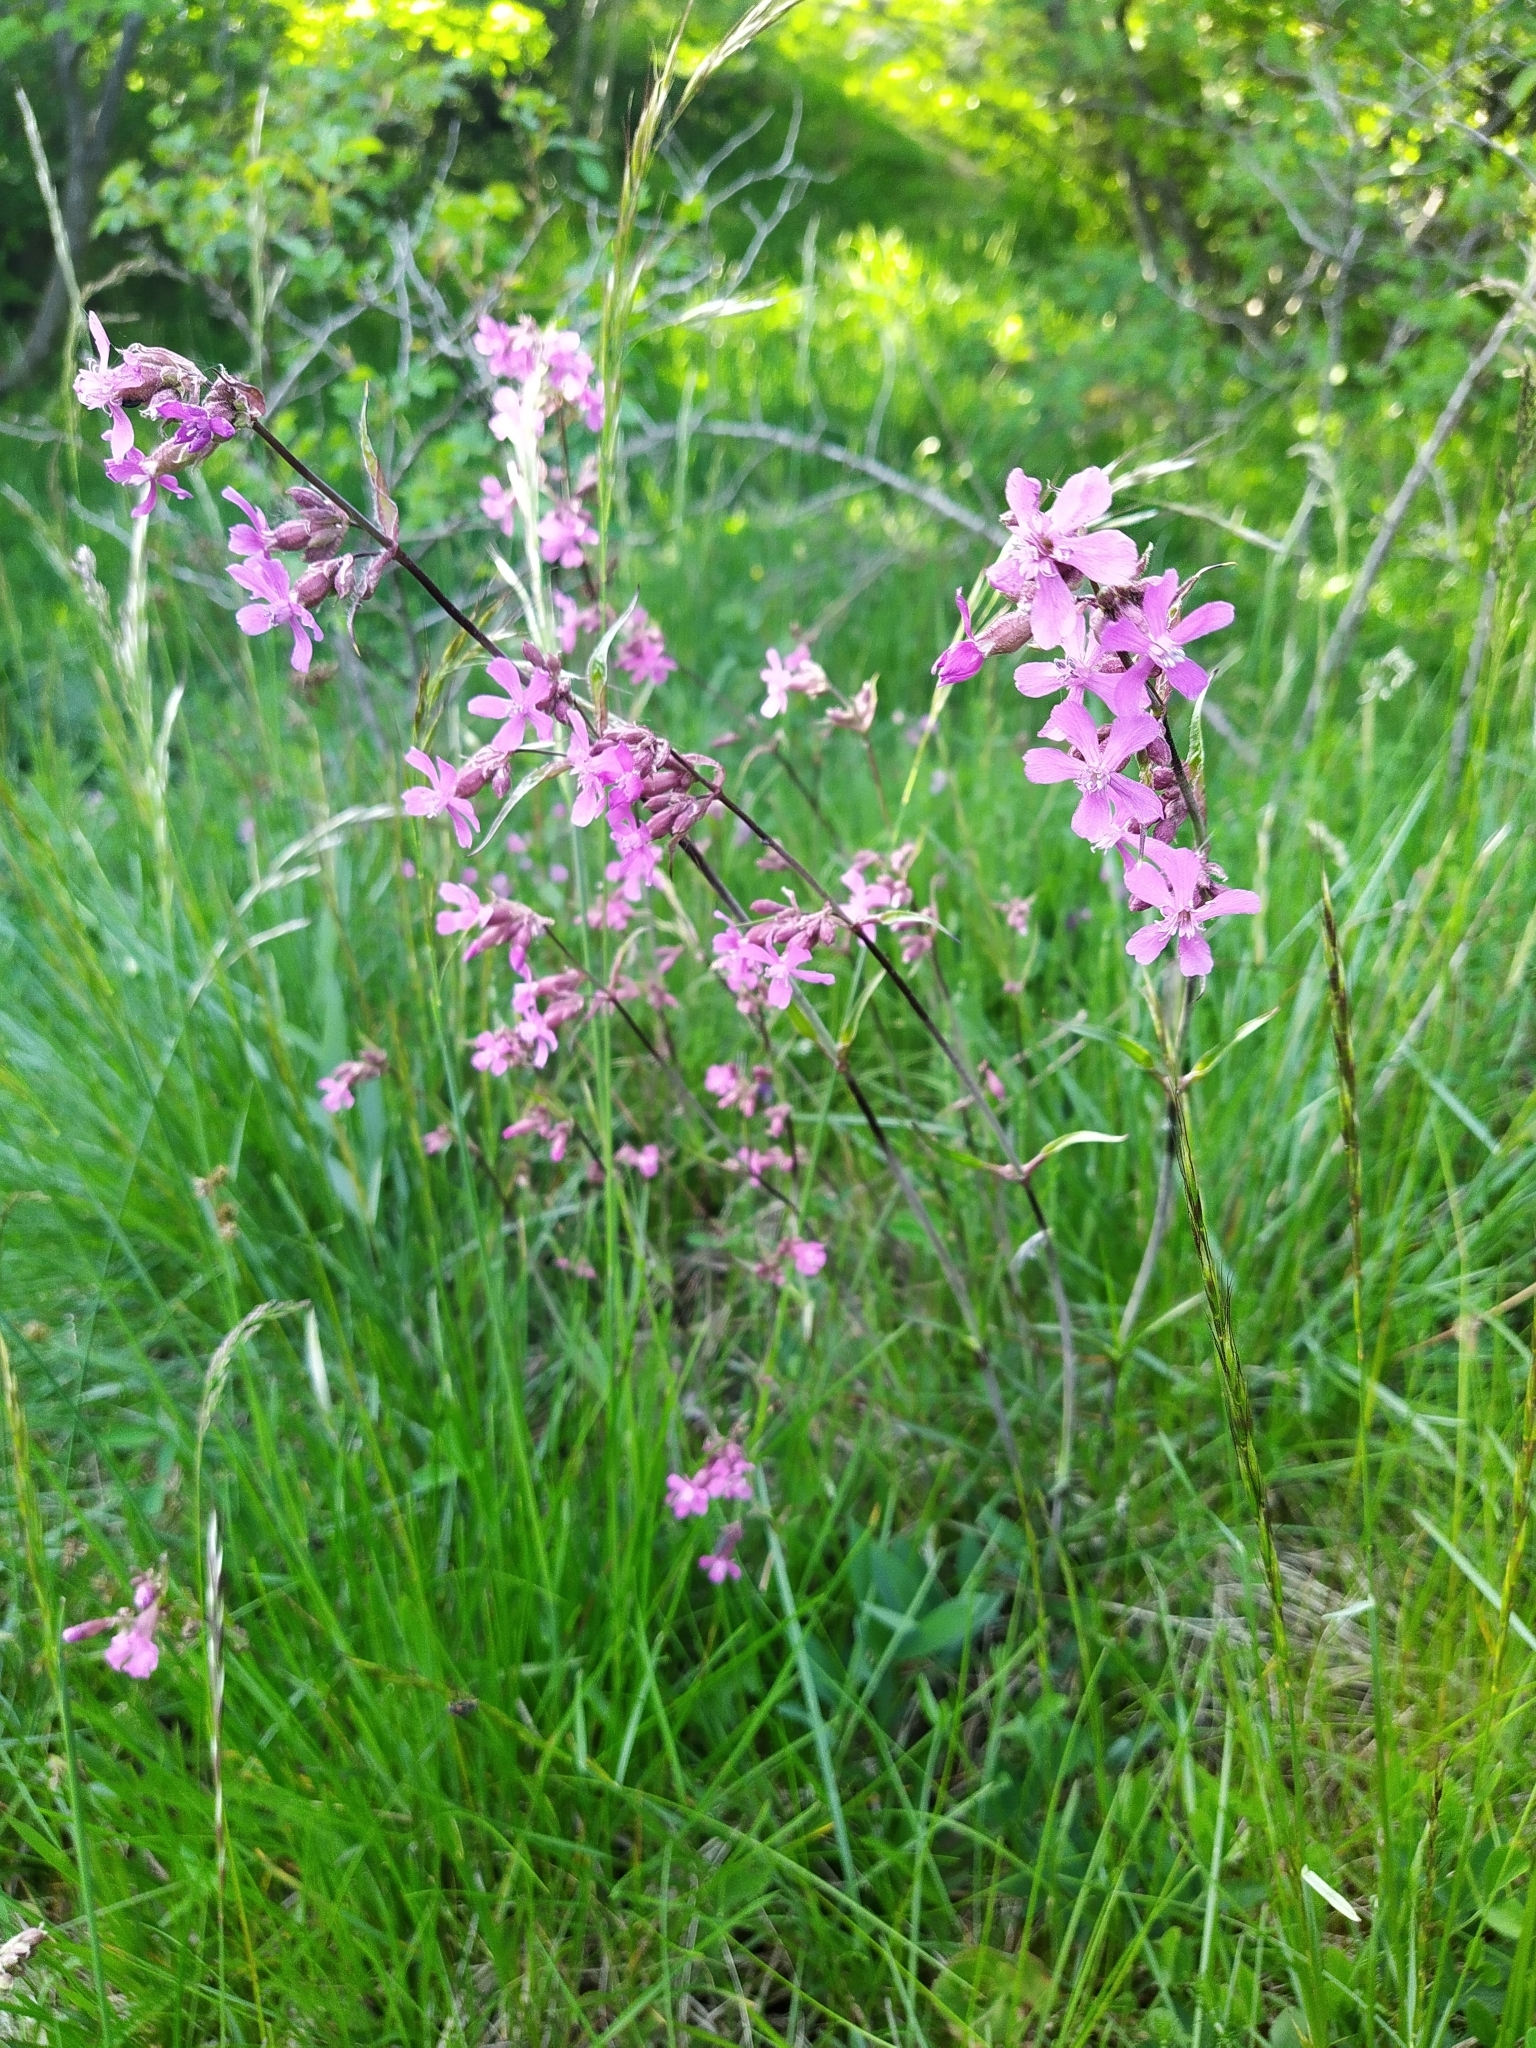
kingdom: Plantae
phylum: Tracheophyta
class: Magnoliopsida
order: Caryophyllales
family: Caryophyllaceae
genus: Viscaria
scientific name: Viscaria vulgaris
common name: Clammy campion
